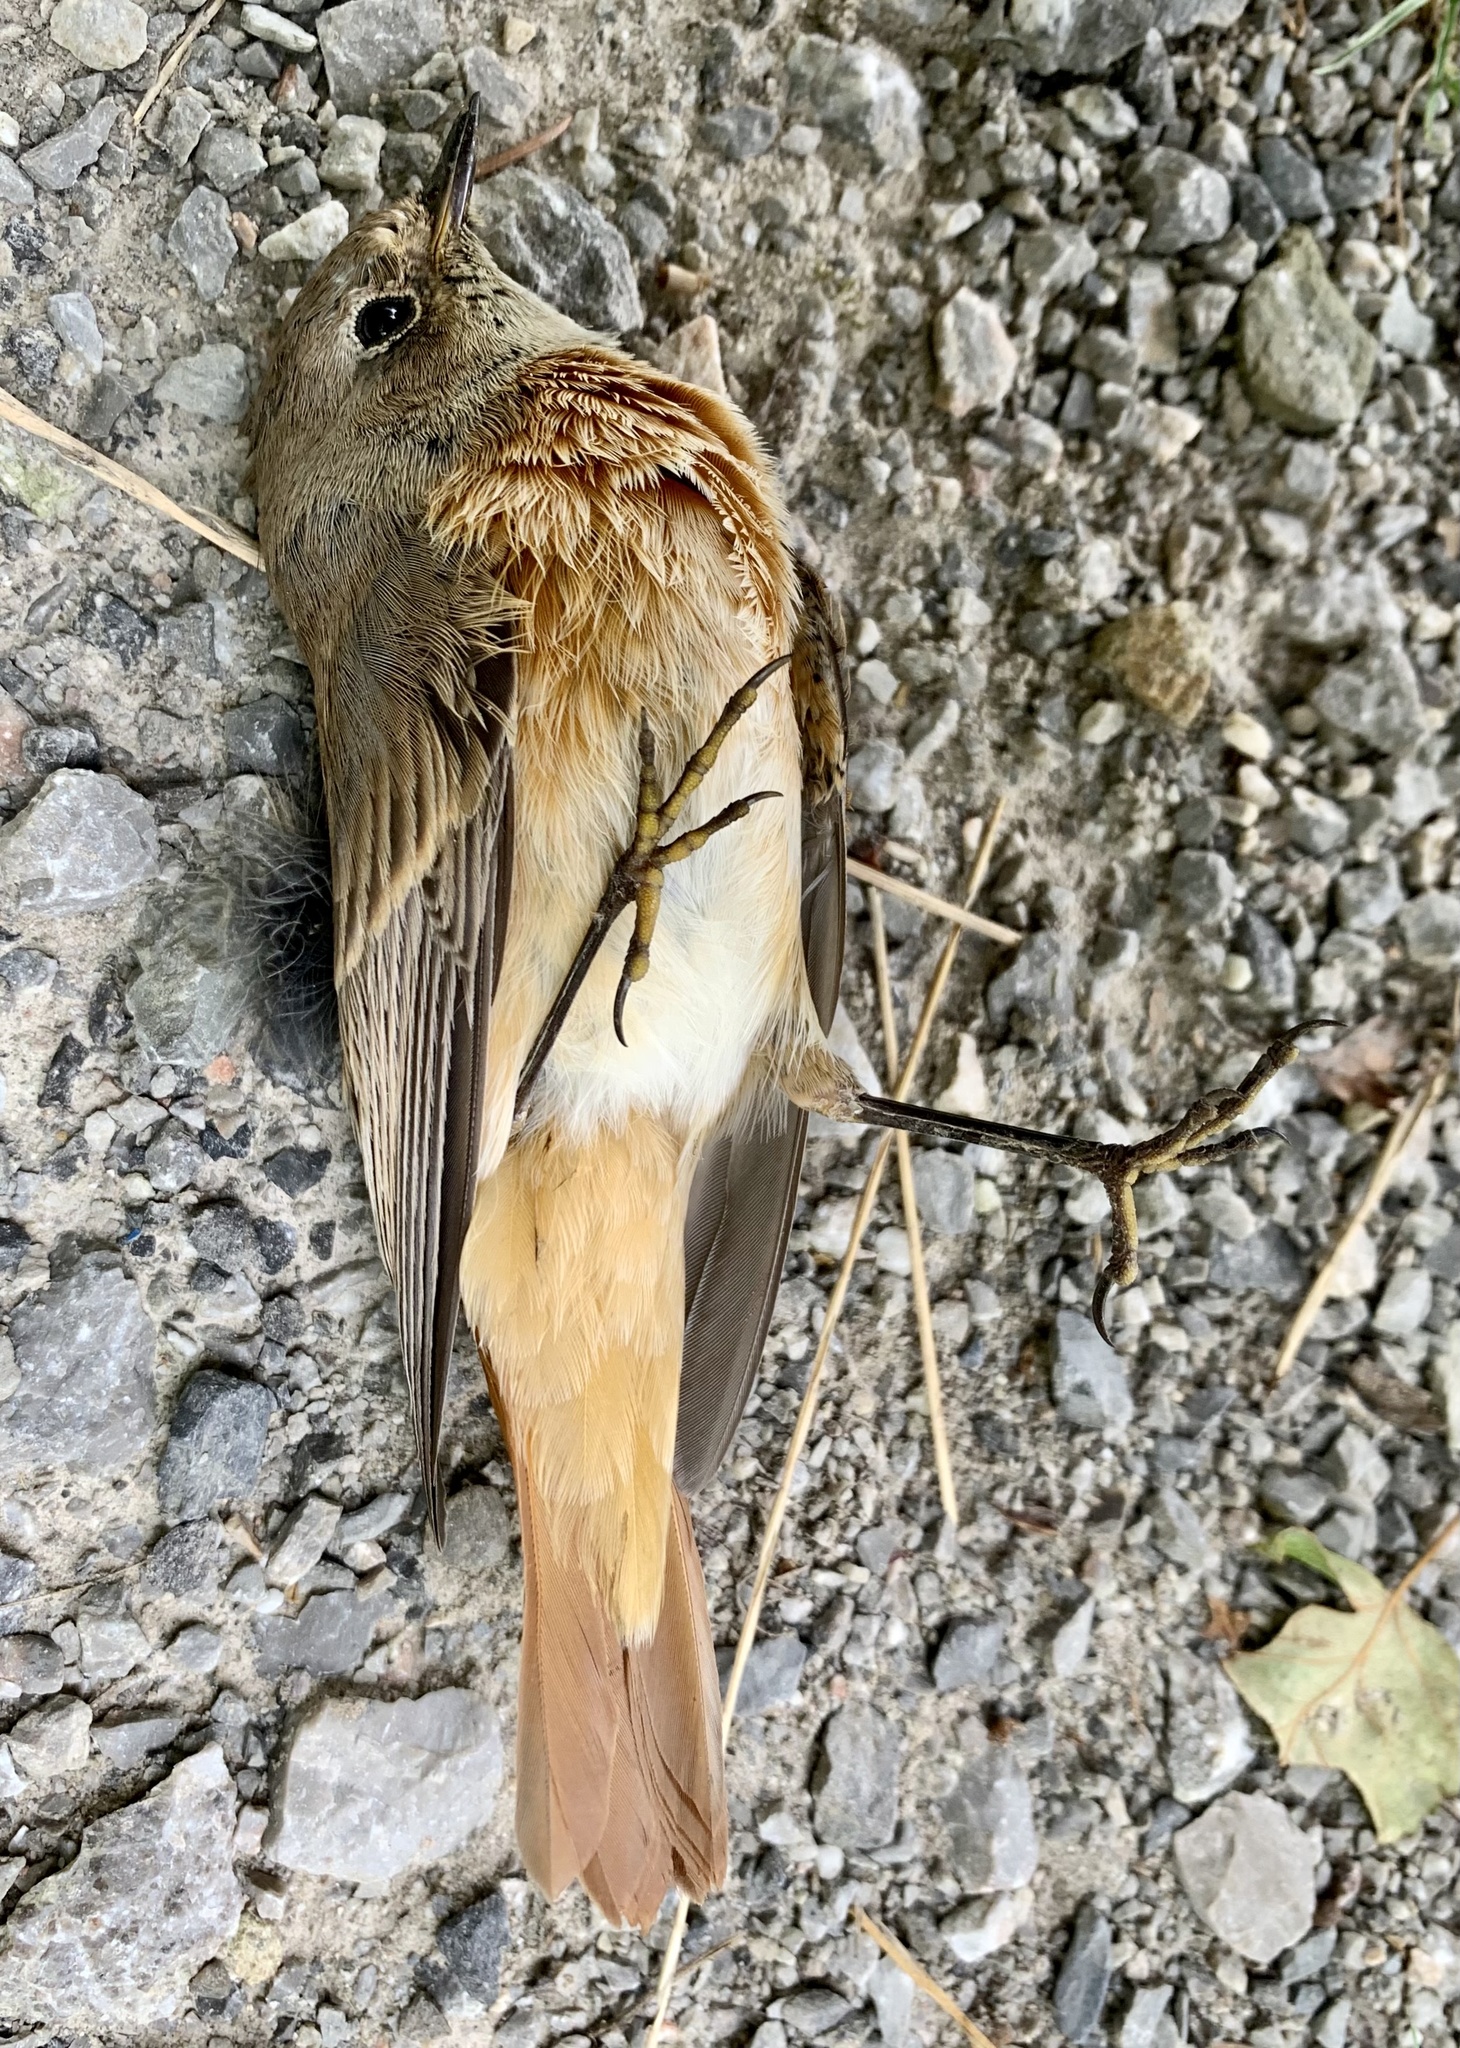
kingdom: Animalia
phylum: Chordata
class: Aves
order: Passeriformes
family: Muscicapidae
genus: Phoenicurus
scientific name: Phoenicurus phoenicurus
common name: Common redstart
